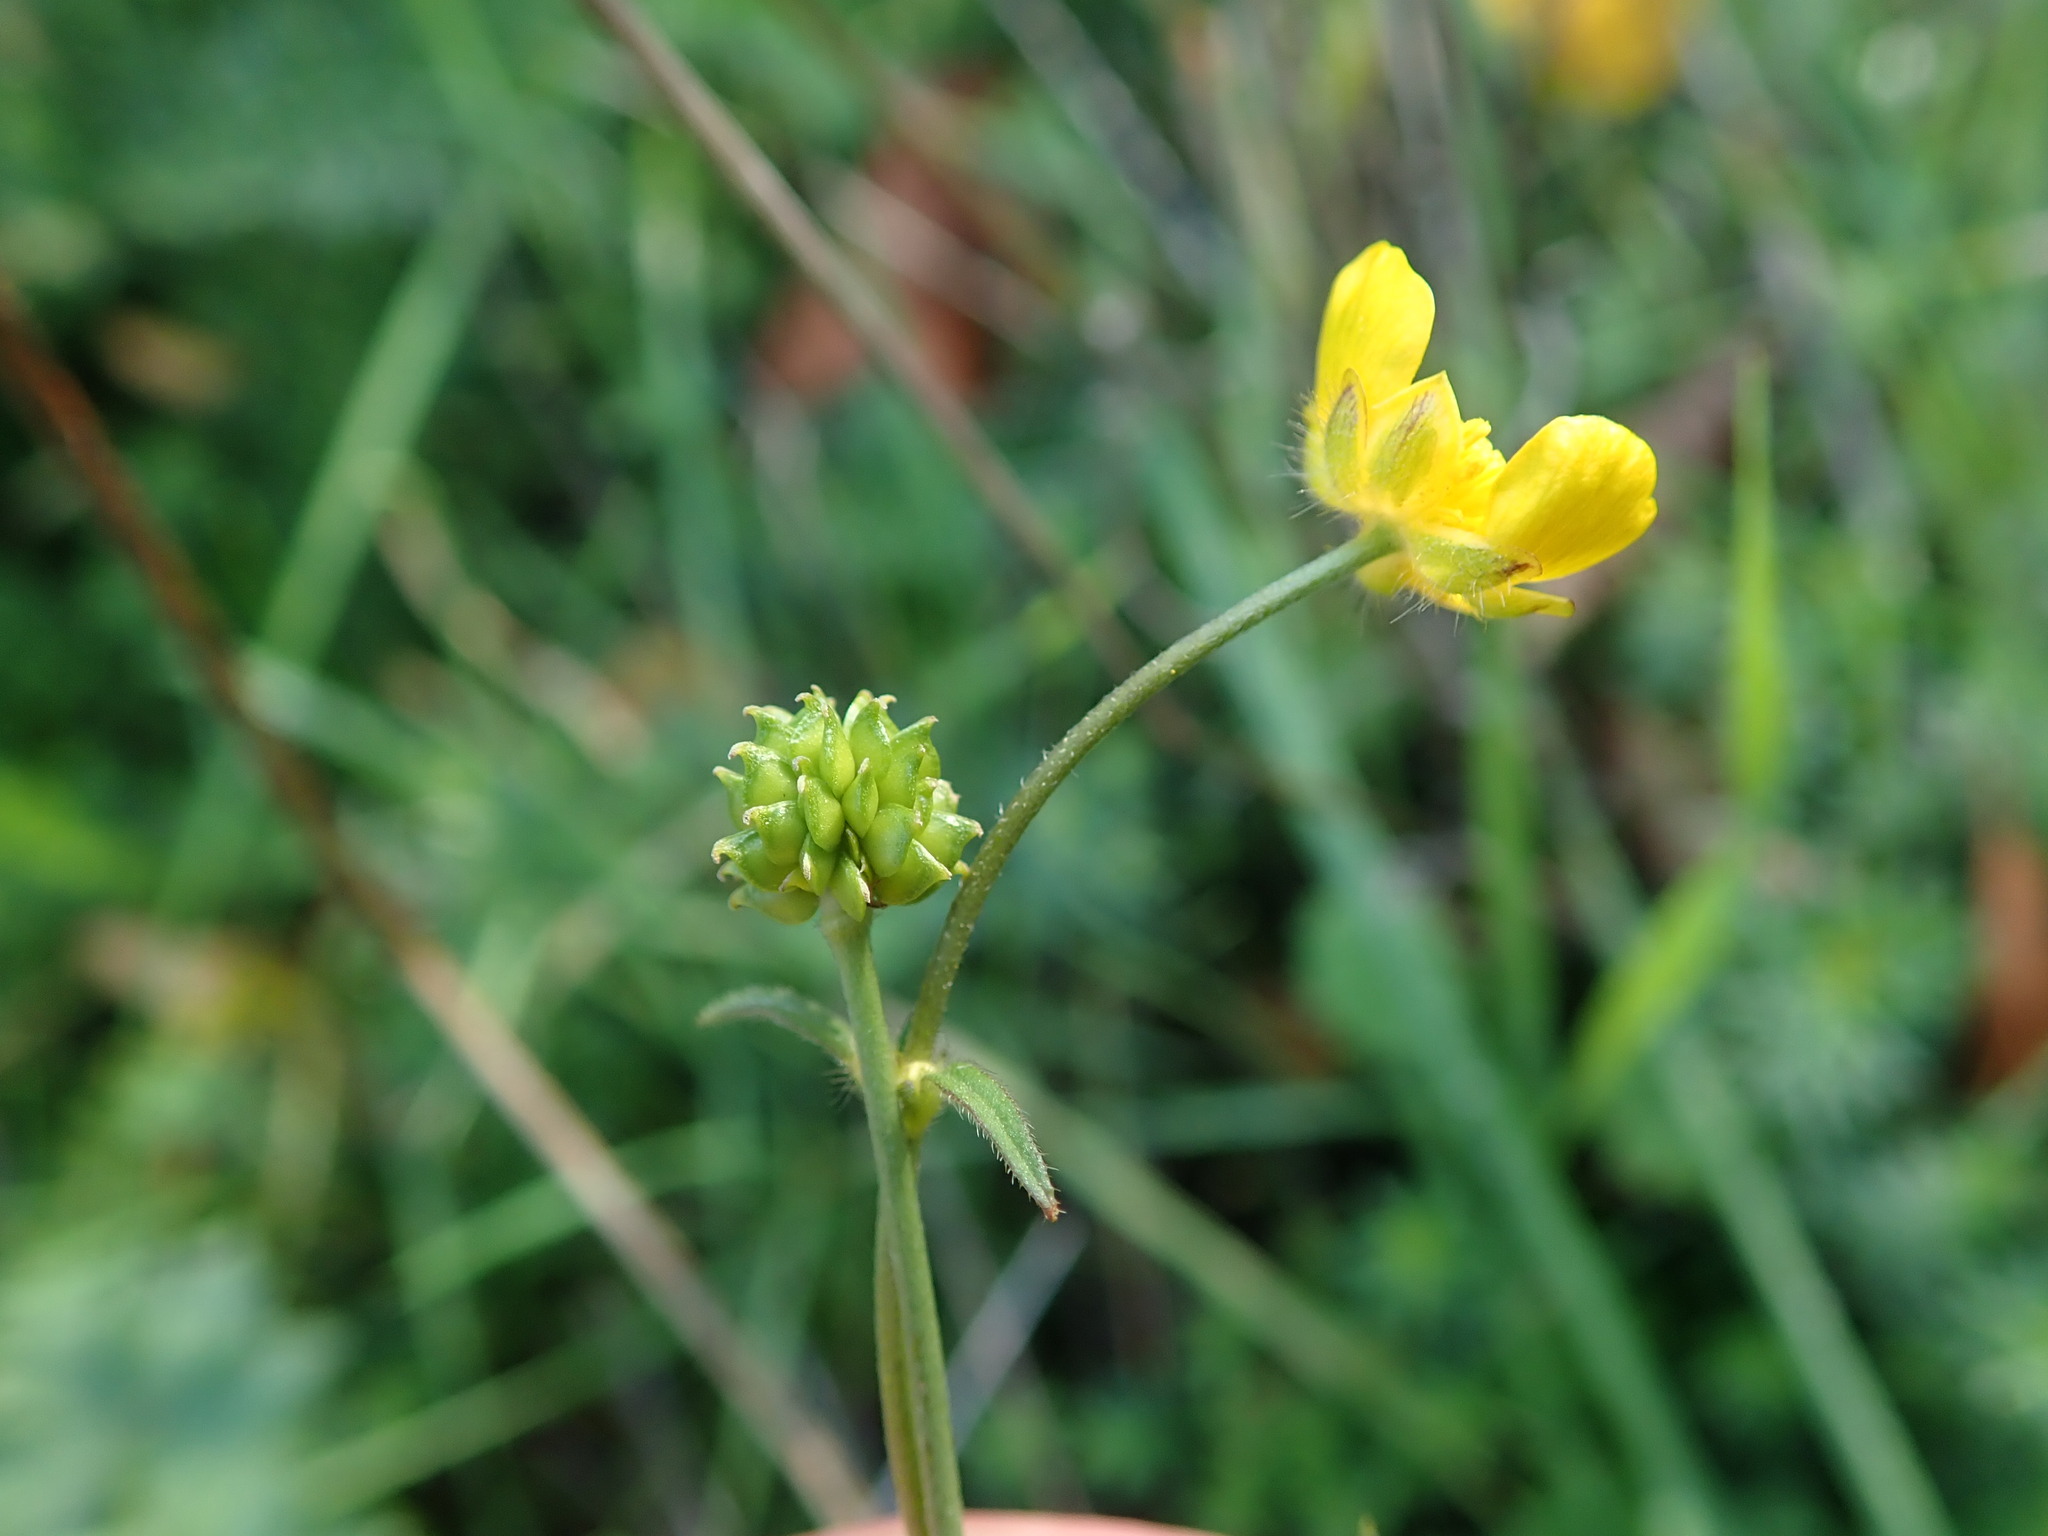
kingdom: Plantae
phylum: Tracheophyta
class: Magnoliopsida
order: Ranunculales
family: Ranunculaceae
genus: Ranunculus
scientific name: Ranunculus acris
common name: Meadow buttercup
